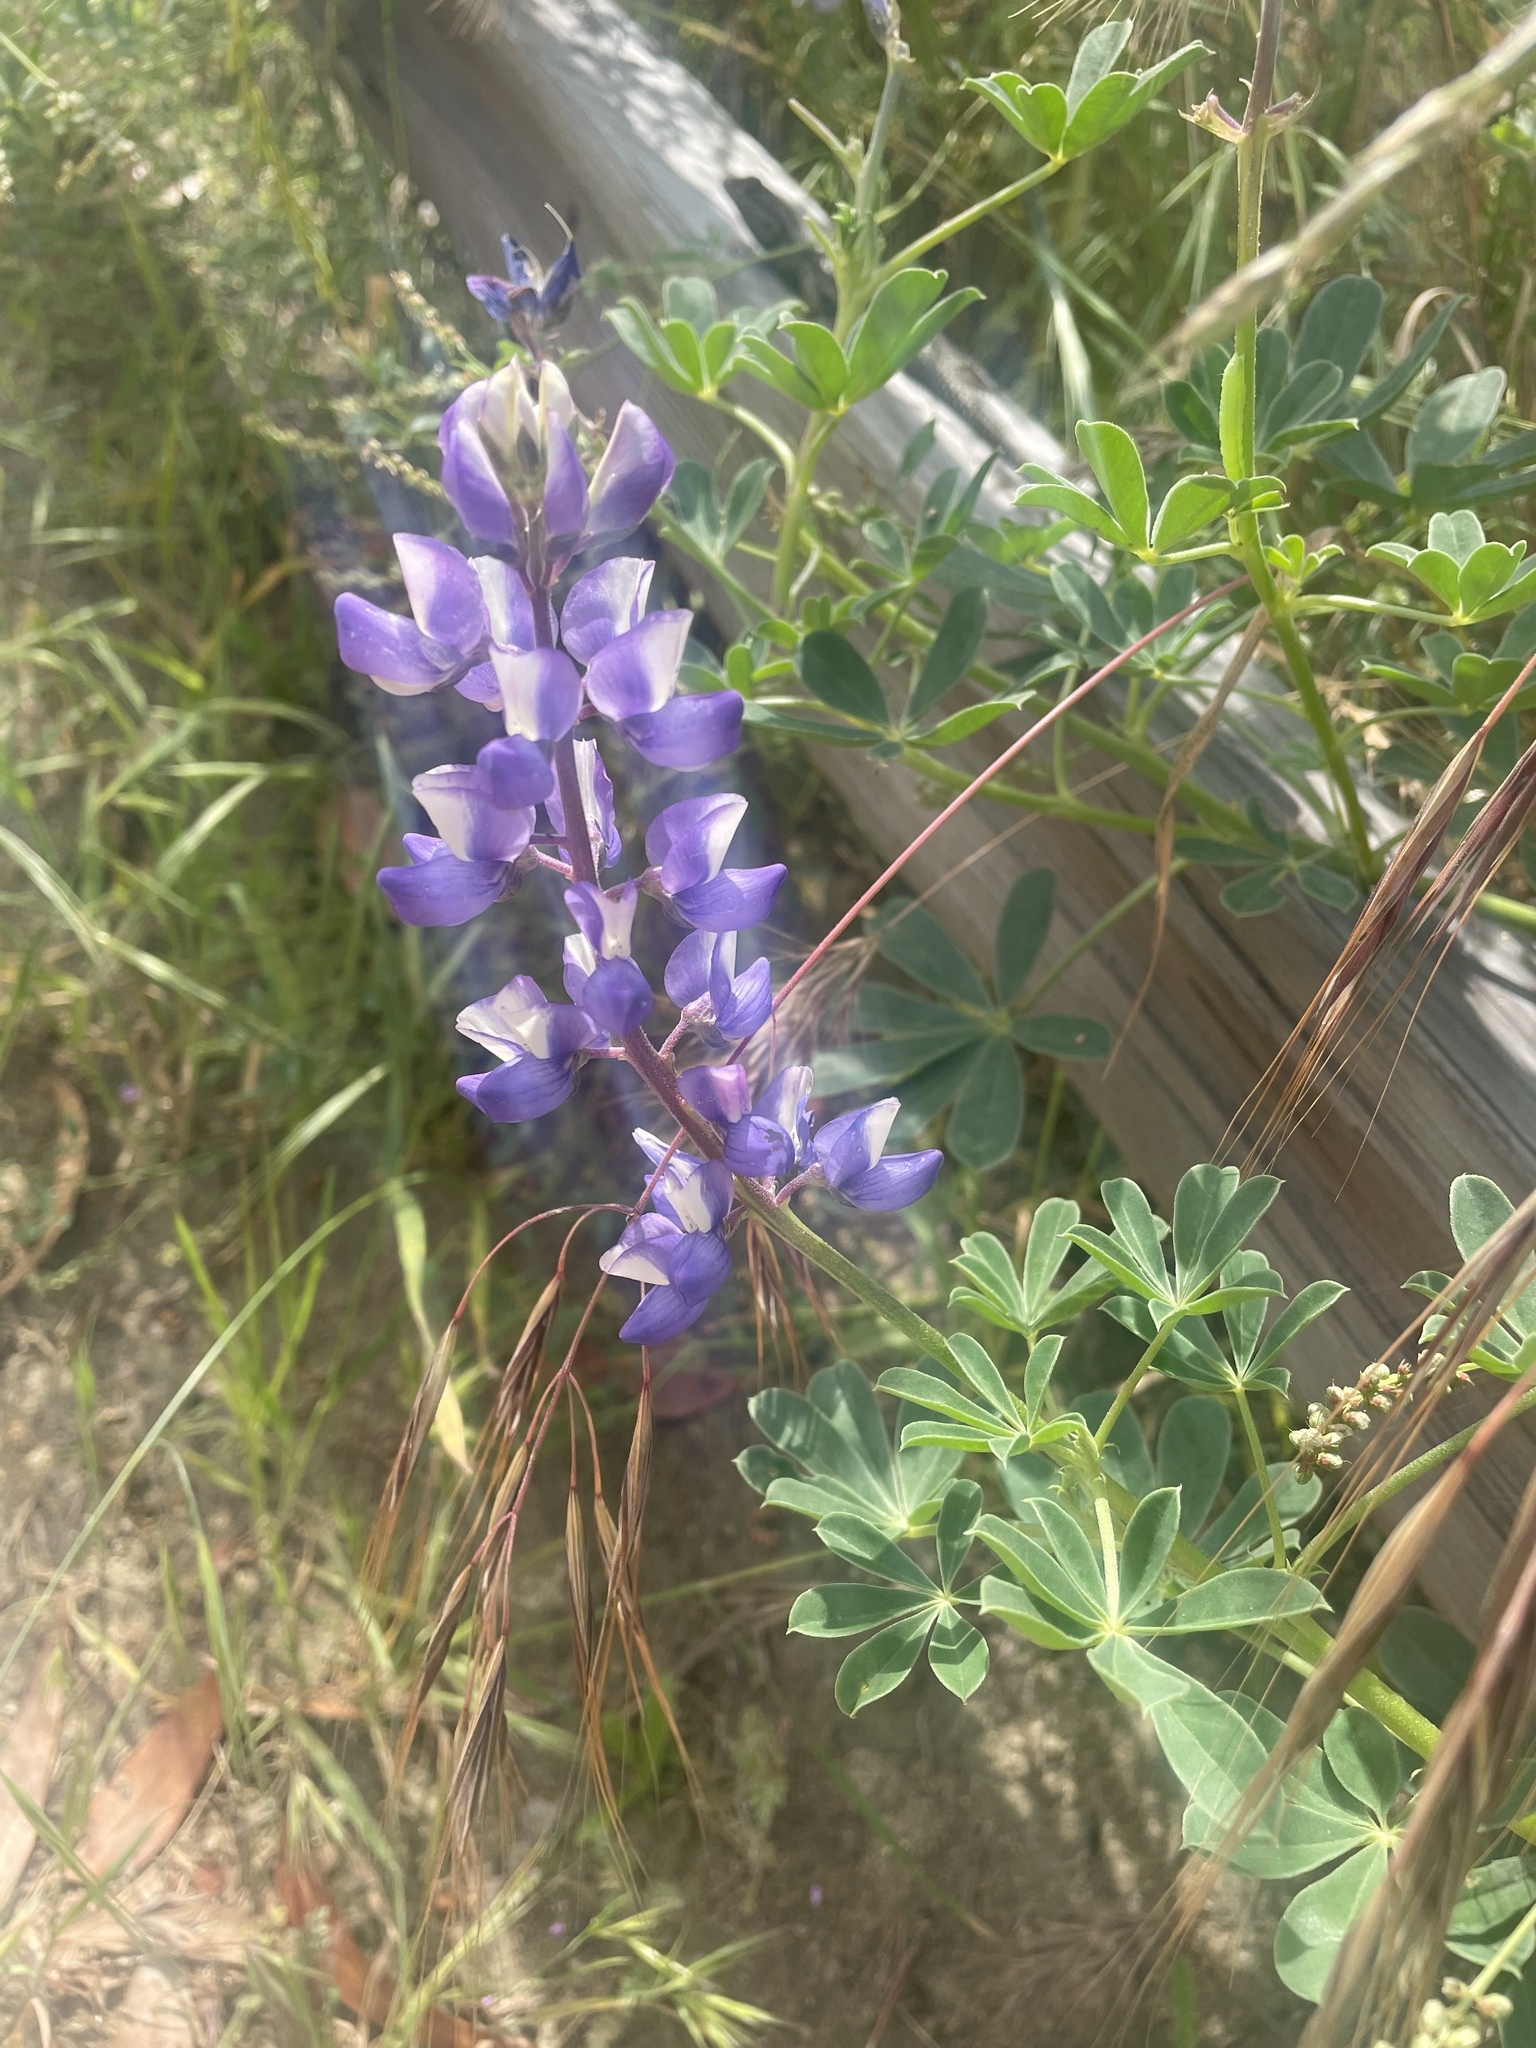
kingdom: Plantae
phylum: Tracheophyta
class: Magnoliopsida
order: Fabales
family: Fabaceae
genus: Lupinus
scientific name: Lupinus succulentus
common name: Arroyo lupine
